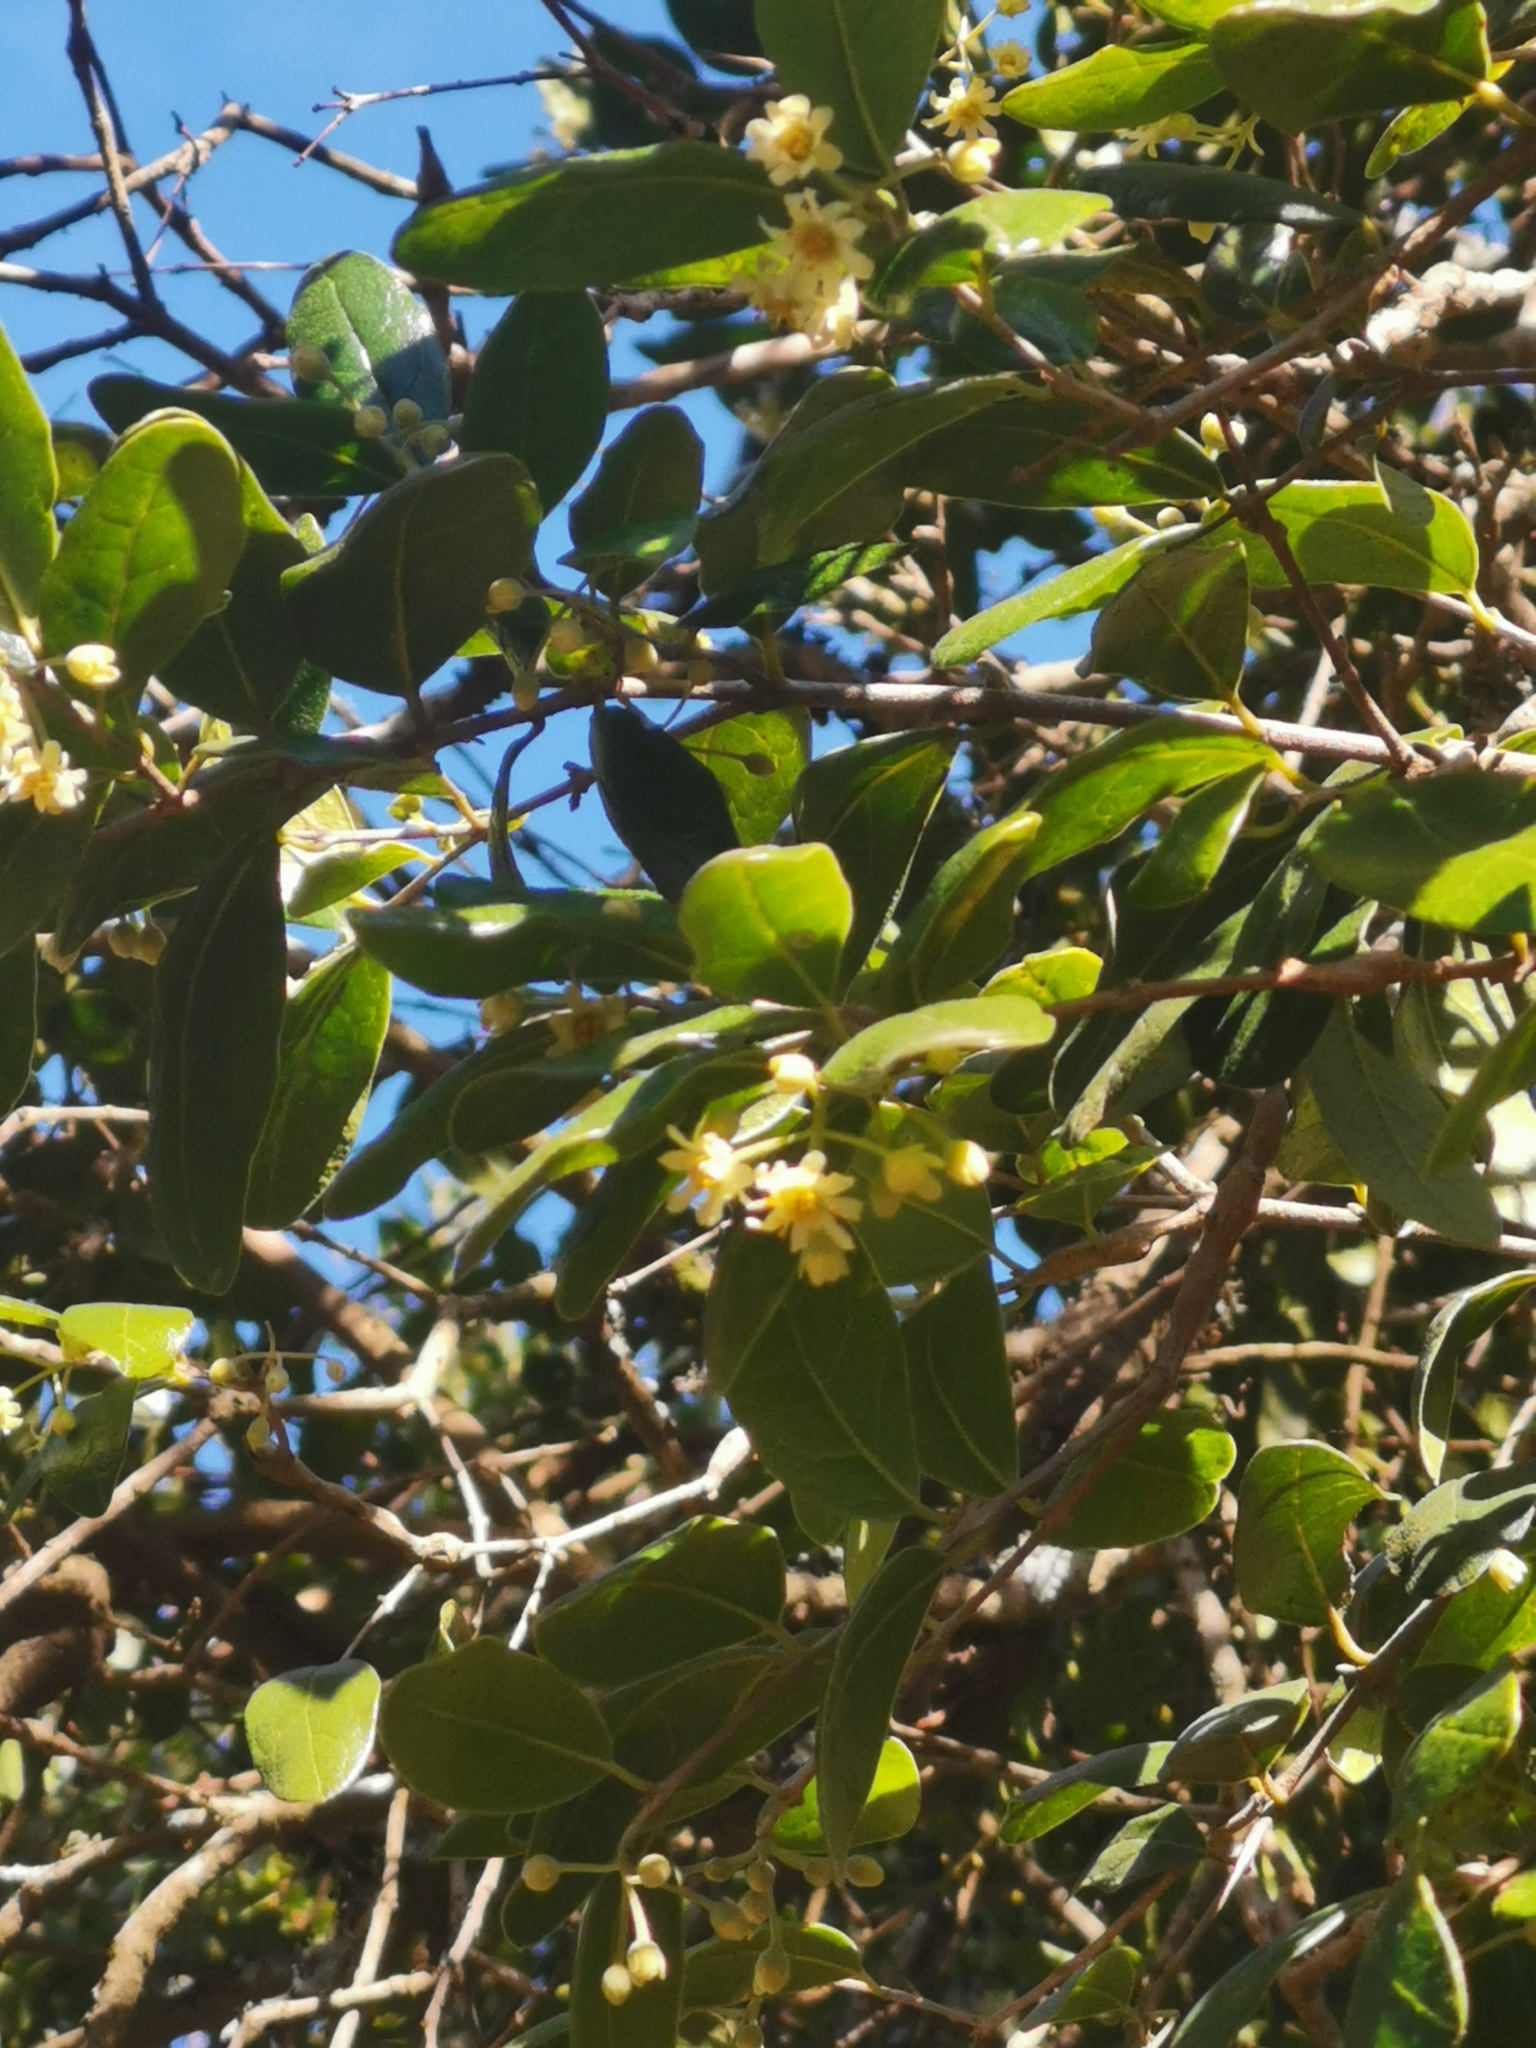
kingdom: Plantae
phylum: Tracheophyta
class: Magnoliopsida
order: Laurales
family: Monimiaceae
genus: Peumus
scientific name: Peumus boldus
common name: Boldo
